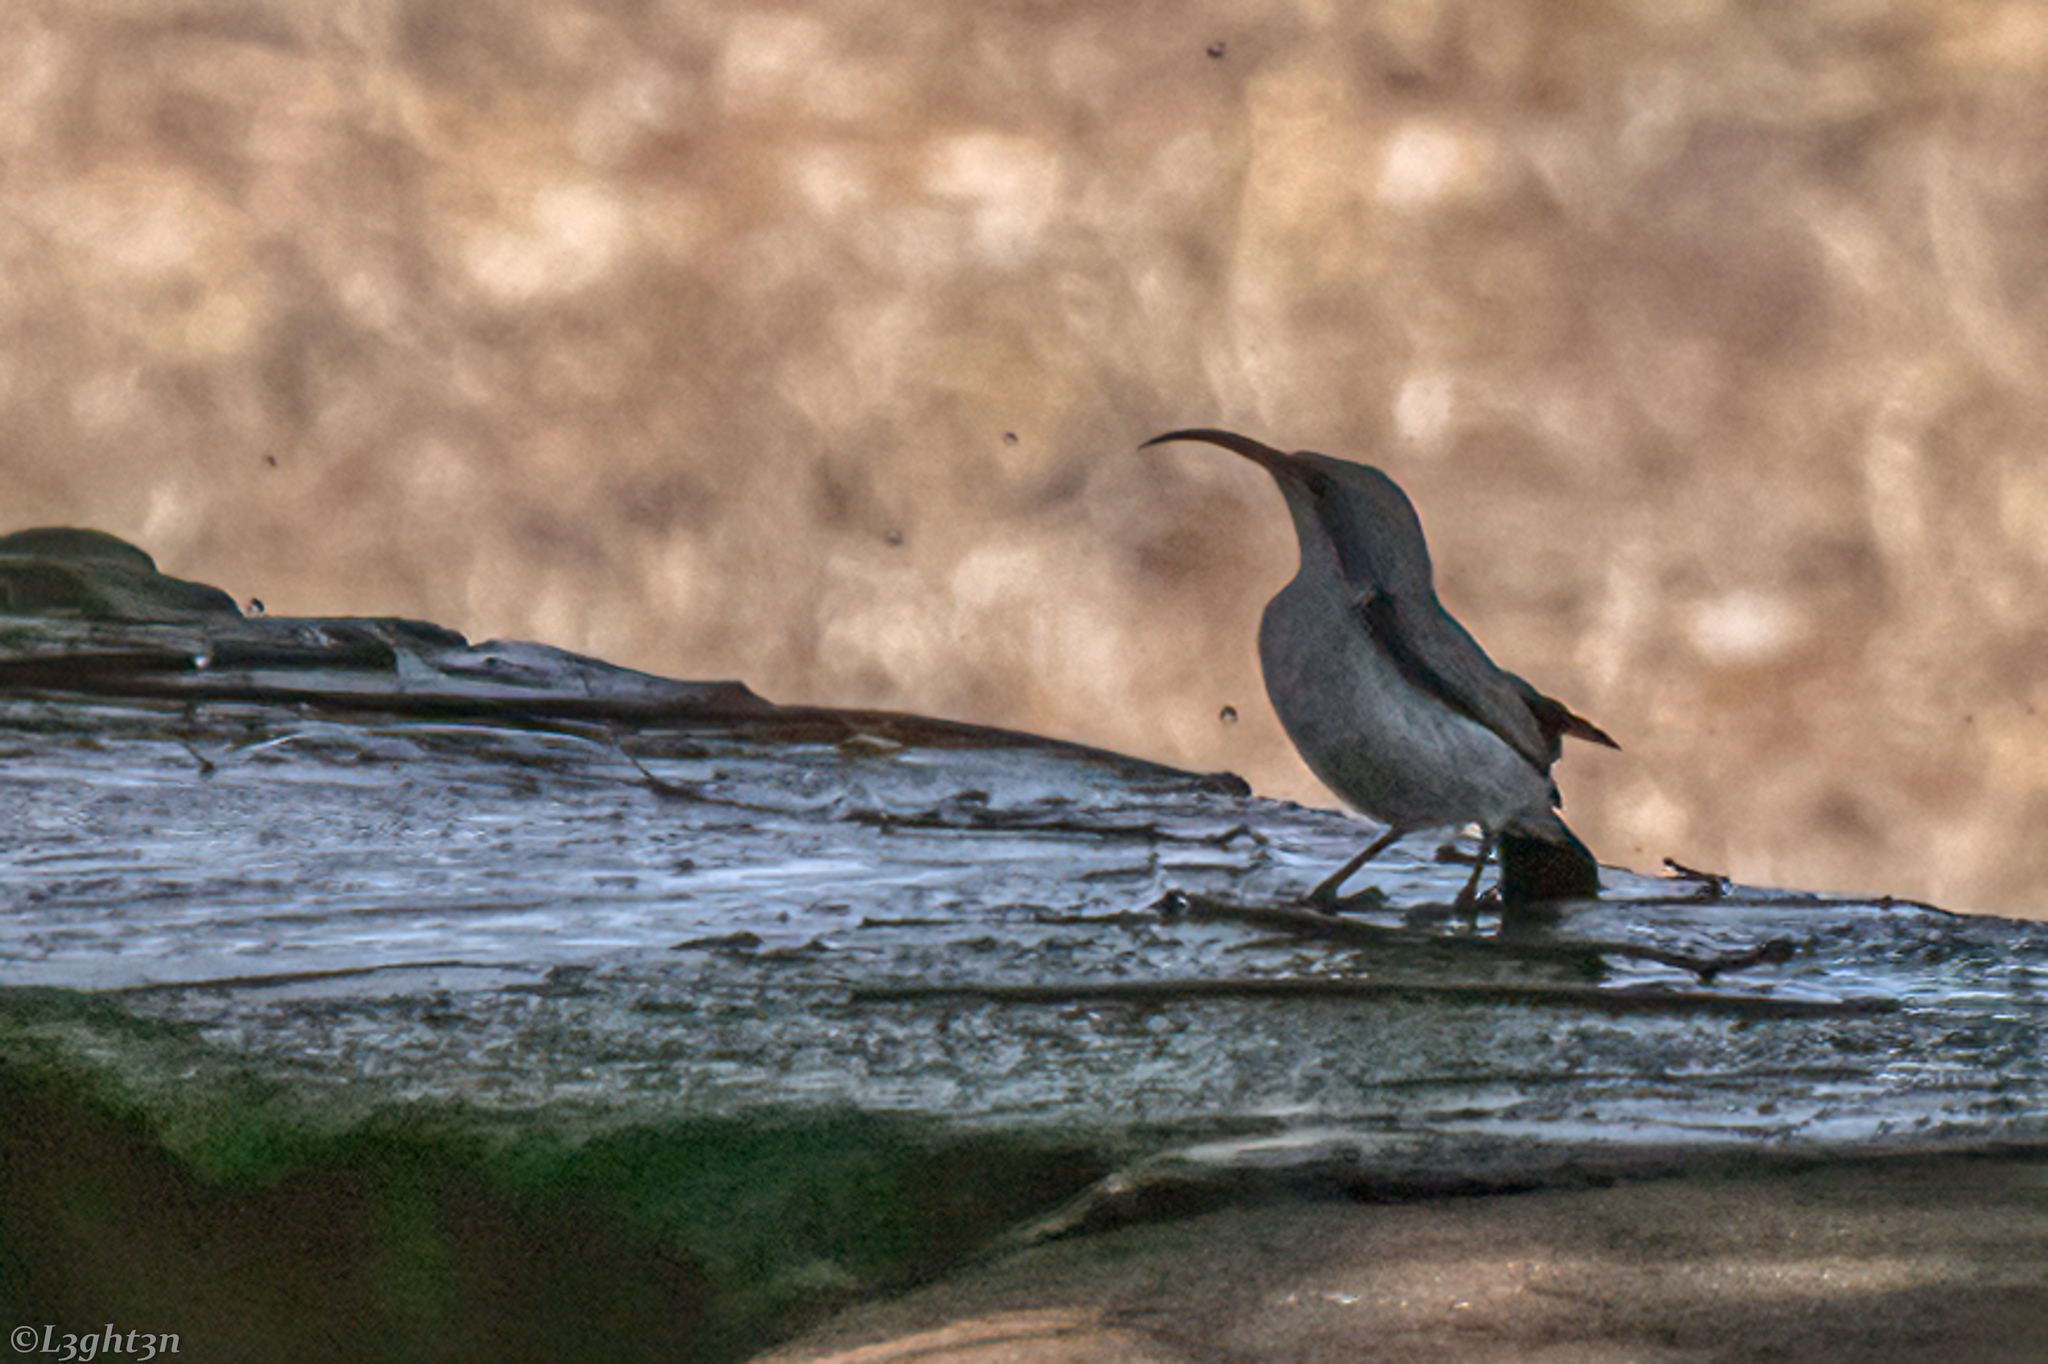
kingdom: Animalia
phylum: Chordata
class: Aves
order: Passeriformes
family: Nectariniidae
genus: Cinnyris
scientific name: Cinnyris talatala
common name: White-bellied sunbird
